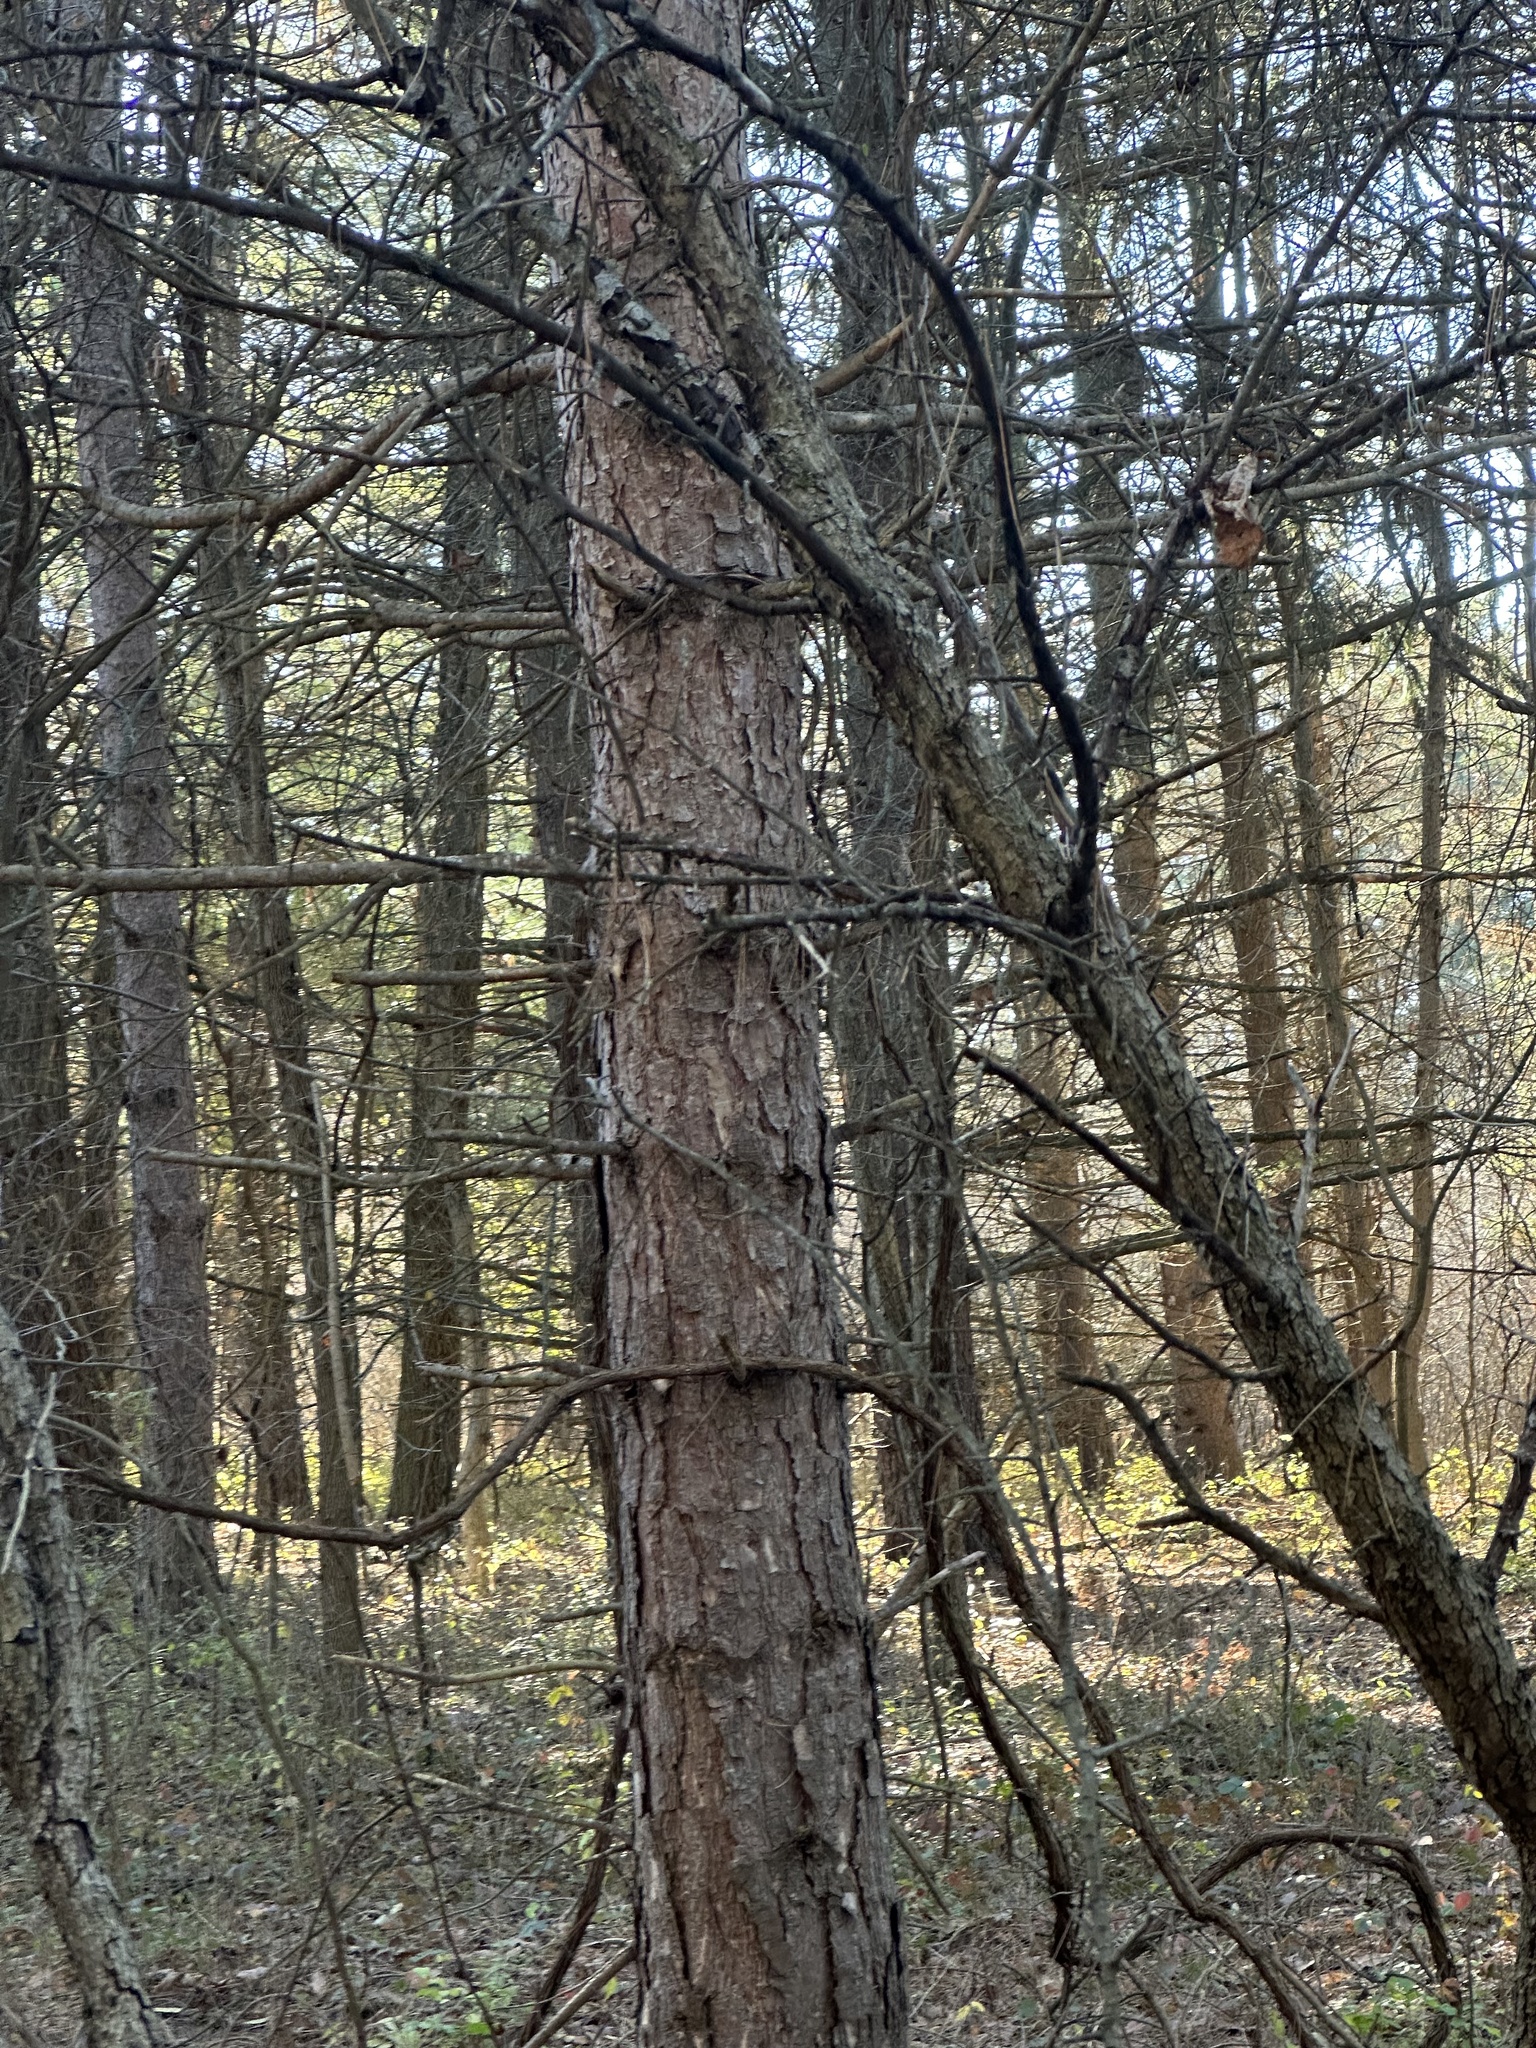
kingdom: Plantae
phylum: Tracheophyta
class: Pinopsida
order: Pinales
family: Pinaceae
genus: Pinus
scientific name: Pinus resinosa
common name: Norway pine
